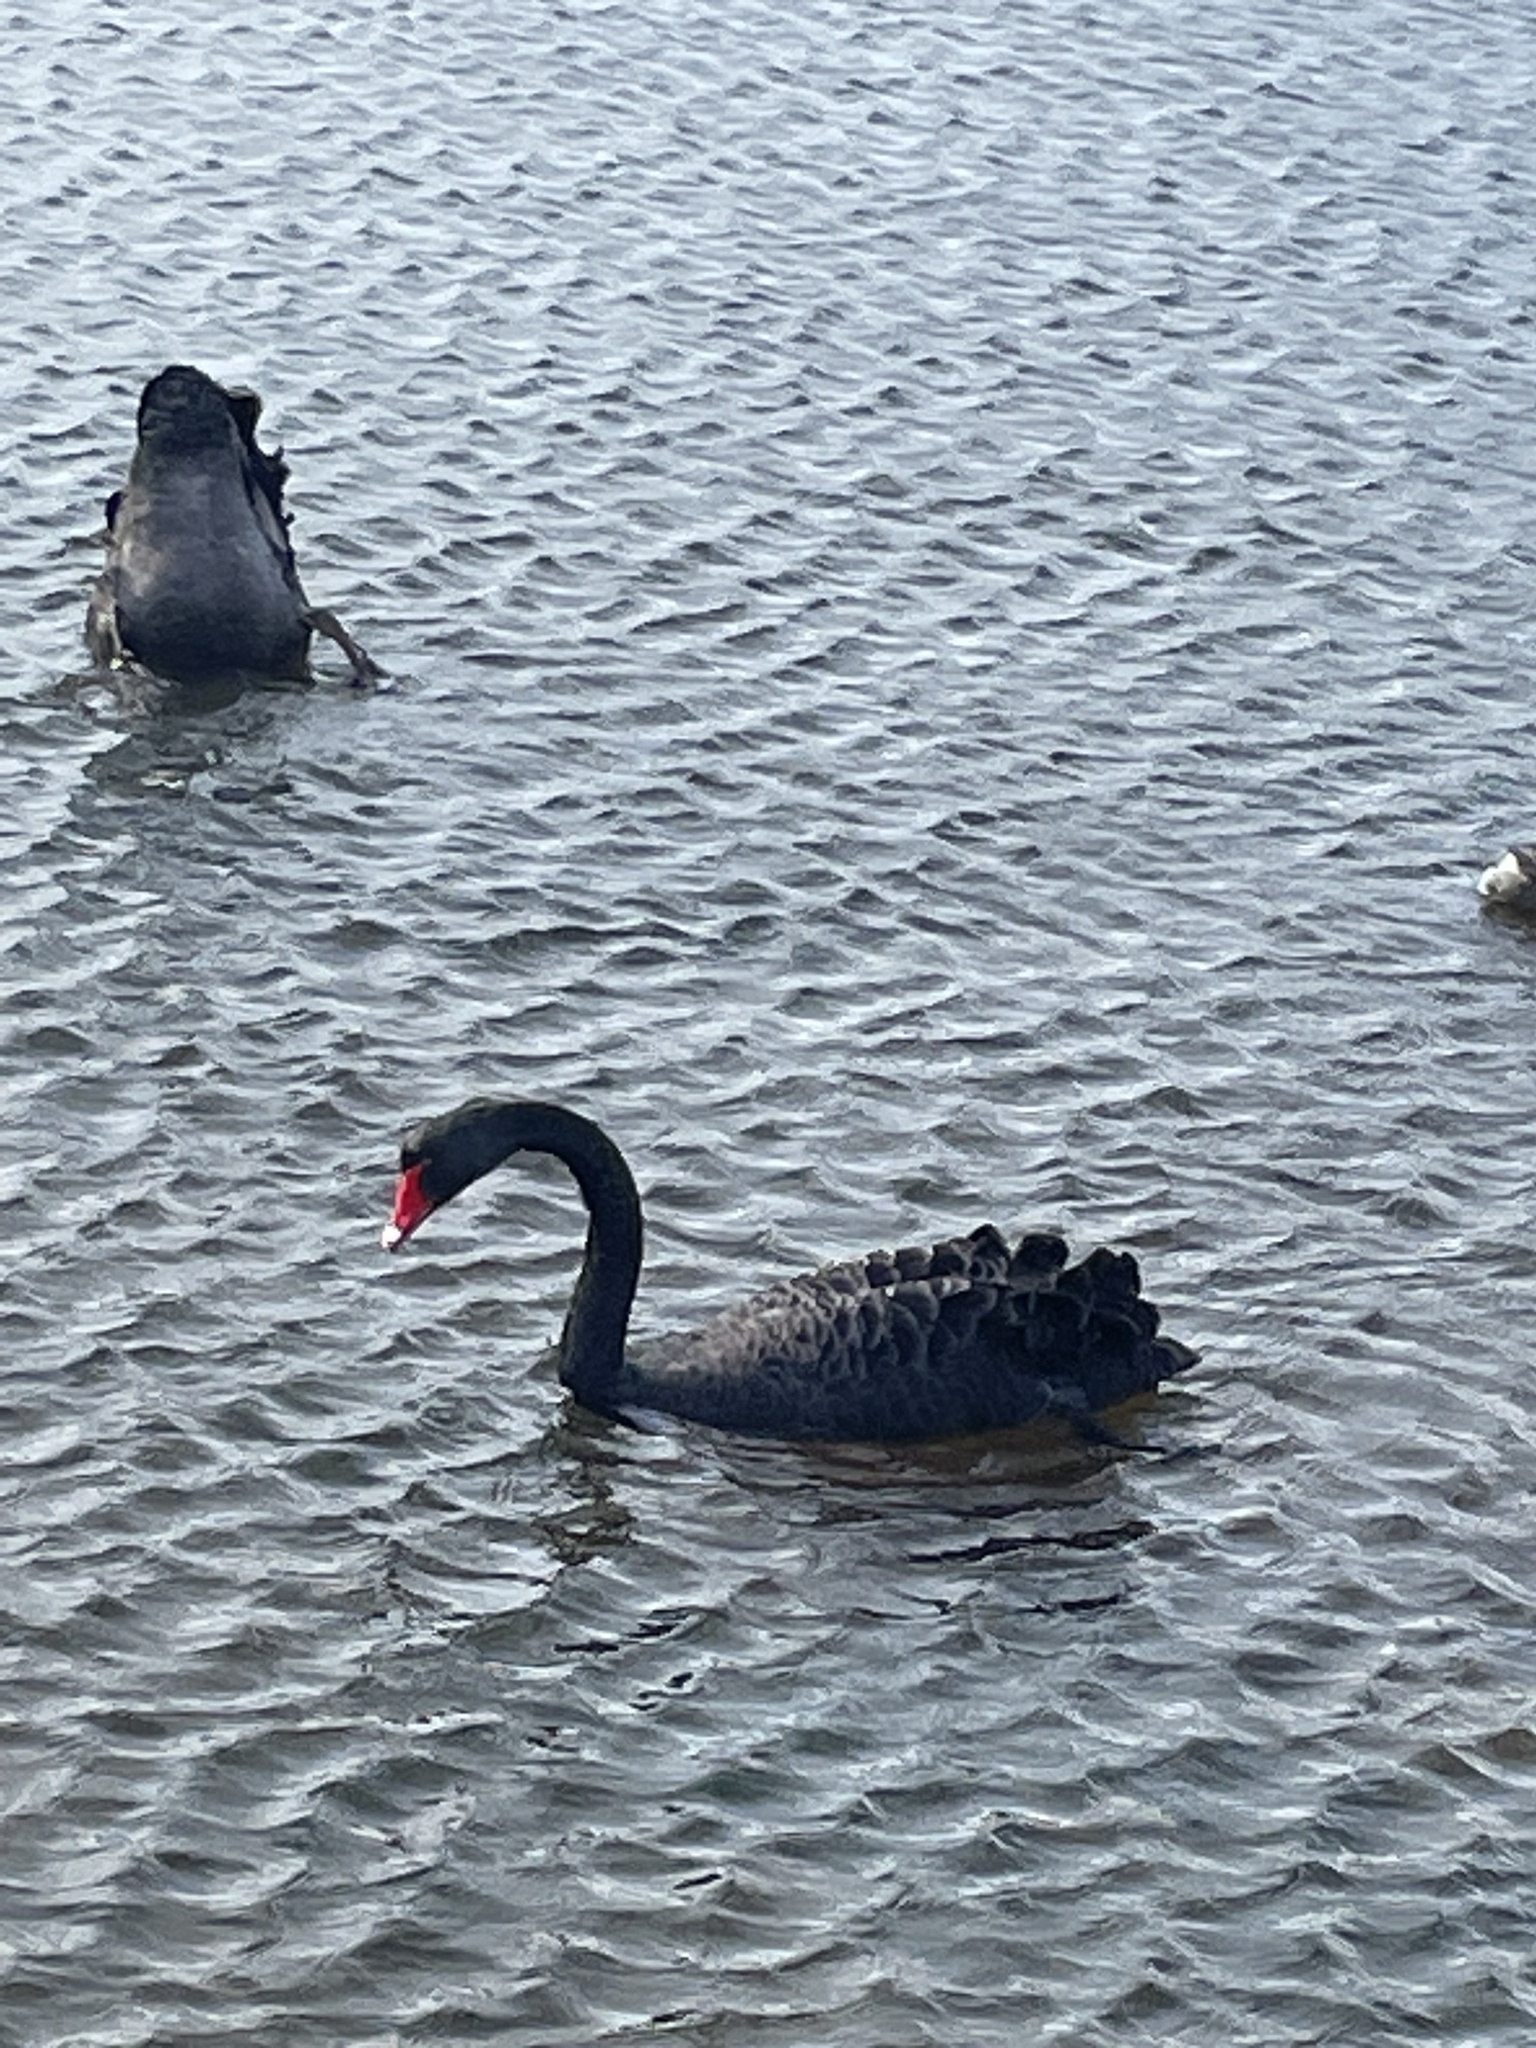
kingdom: Animalia
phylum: Chordata
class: Aves
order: Anseriformes
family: Anatidae
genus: Cygnus
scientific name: Cygnus atratus
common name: Black swan
